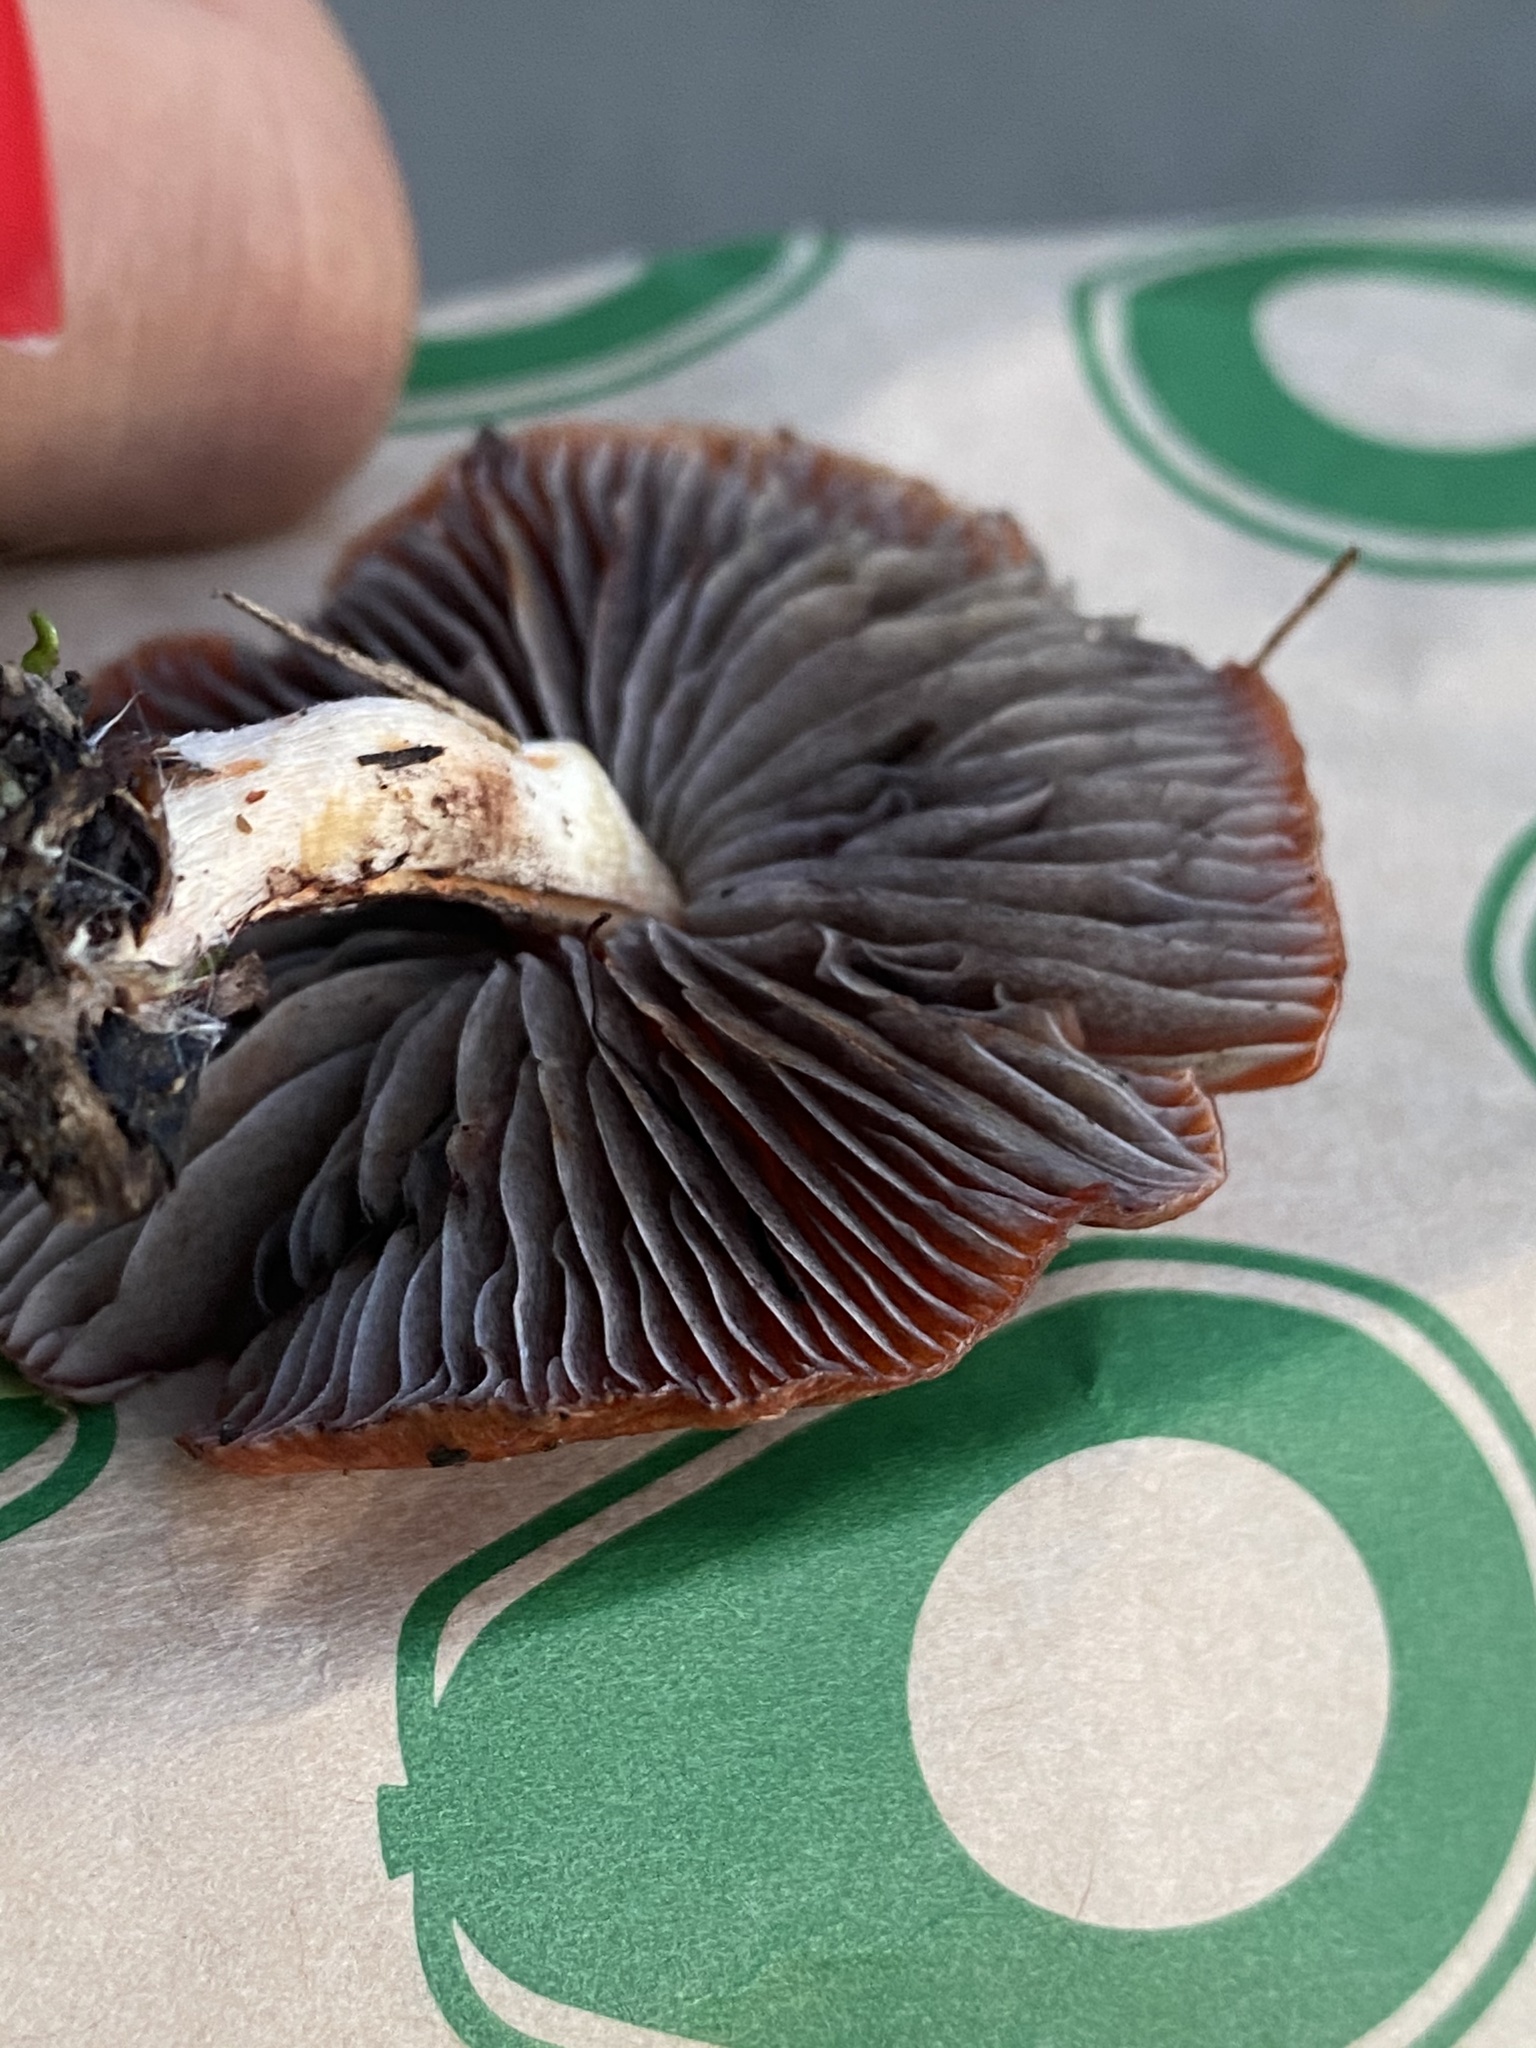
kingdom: Fungi
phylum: Basidiomycota
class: Agaricomycetes
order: Agaricales
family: Strophariaceae
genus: Leratiomyces
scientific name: Leratiomyces ceres
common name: Redlead roundhead
